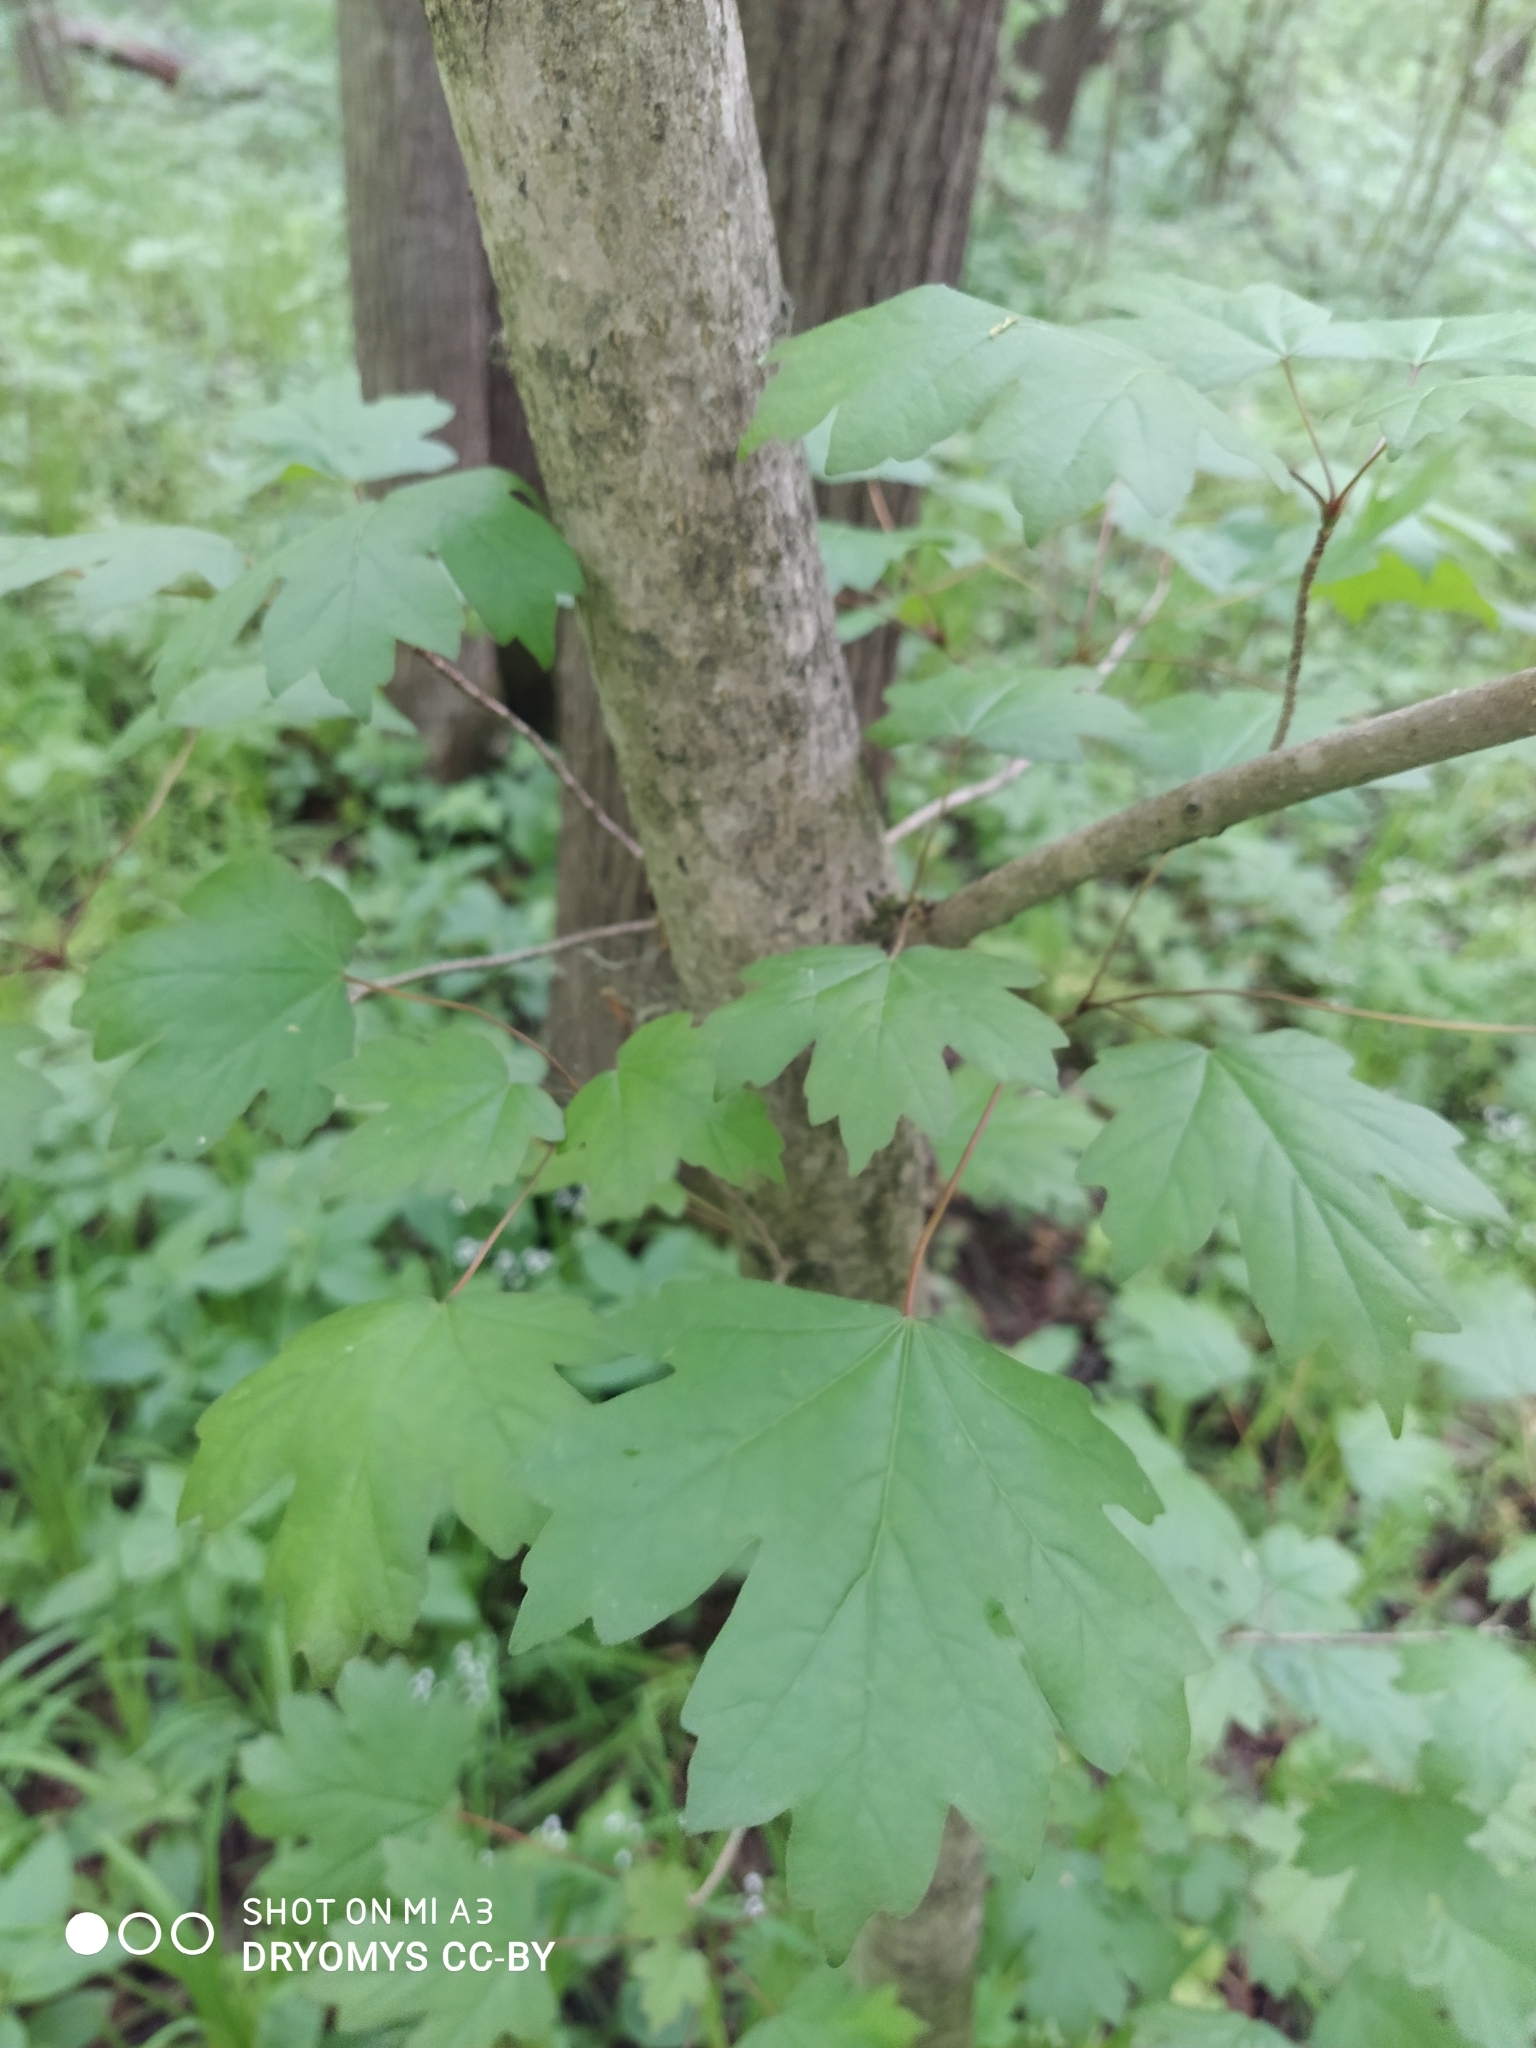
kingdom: Plantae
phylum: Tracheophyta
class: Magnoliopsida
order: Sapindales
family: Sapindaceae
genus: Acer
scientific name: Acer campestre
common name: Field maple
